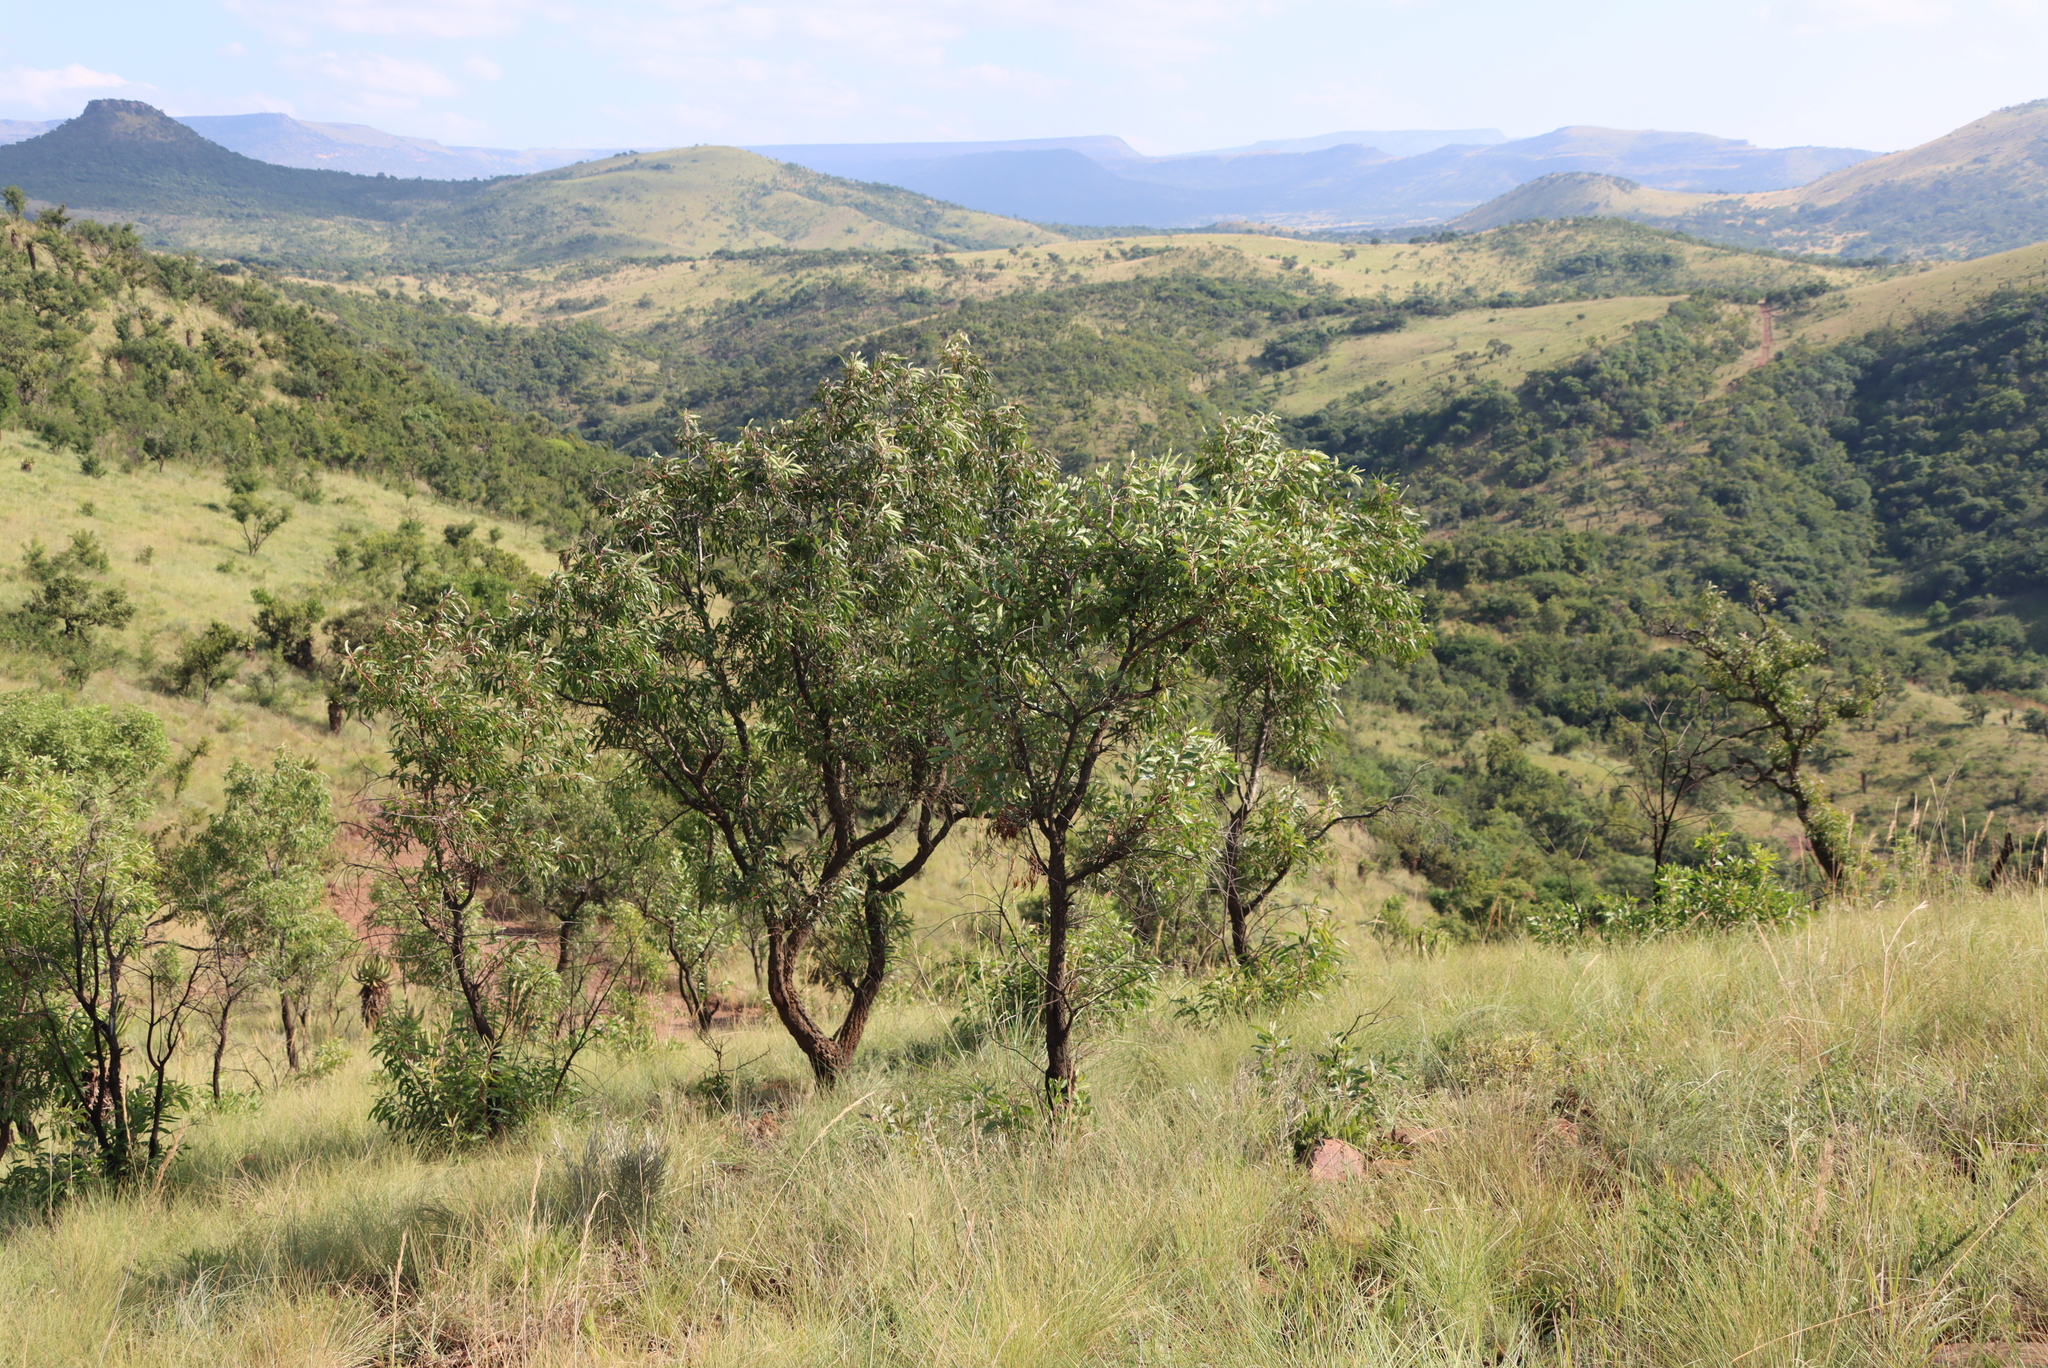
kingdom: Plantae
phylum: Tracheophyta
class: Magnoliopsida
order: Proteales
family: Proteaceae
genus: Faurea
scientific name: Faurea saligna
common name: African bean
